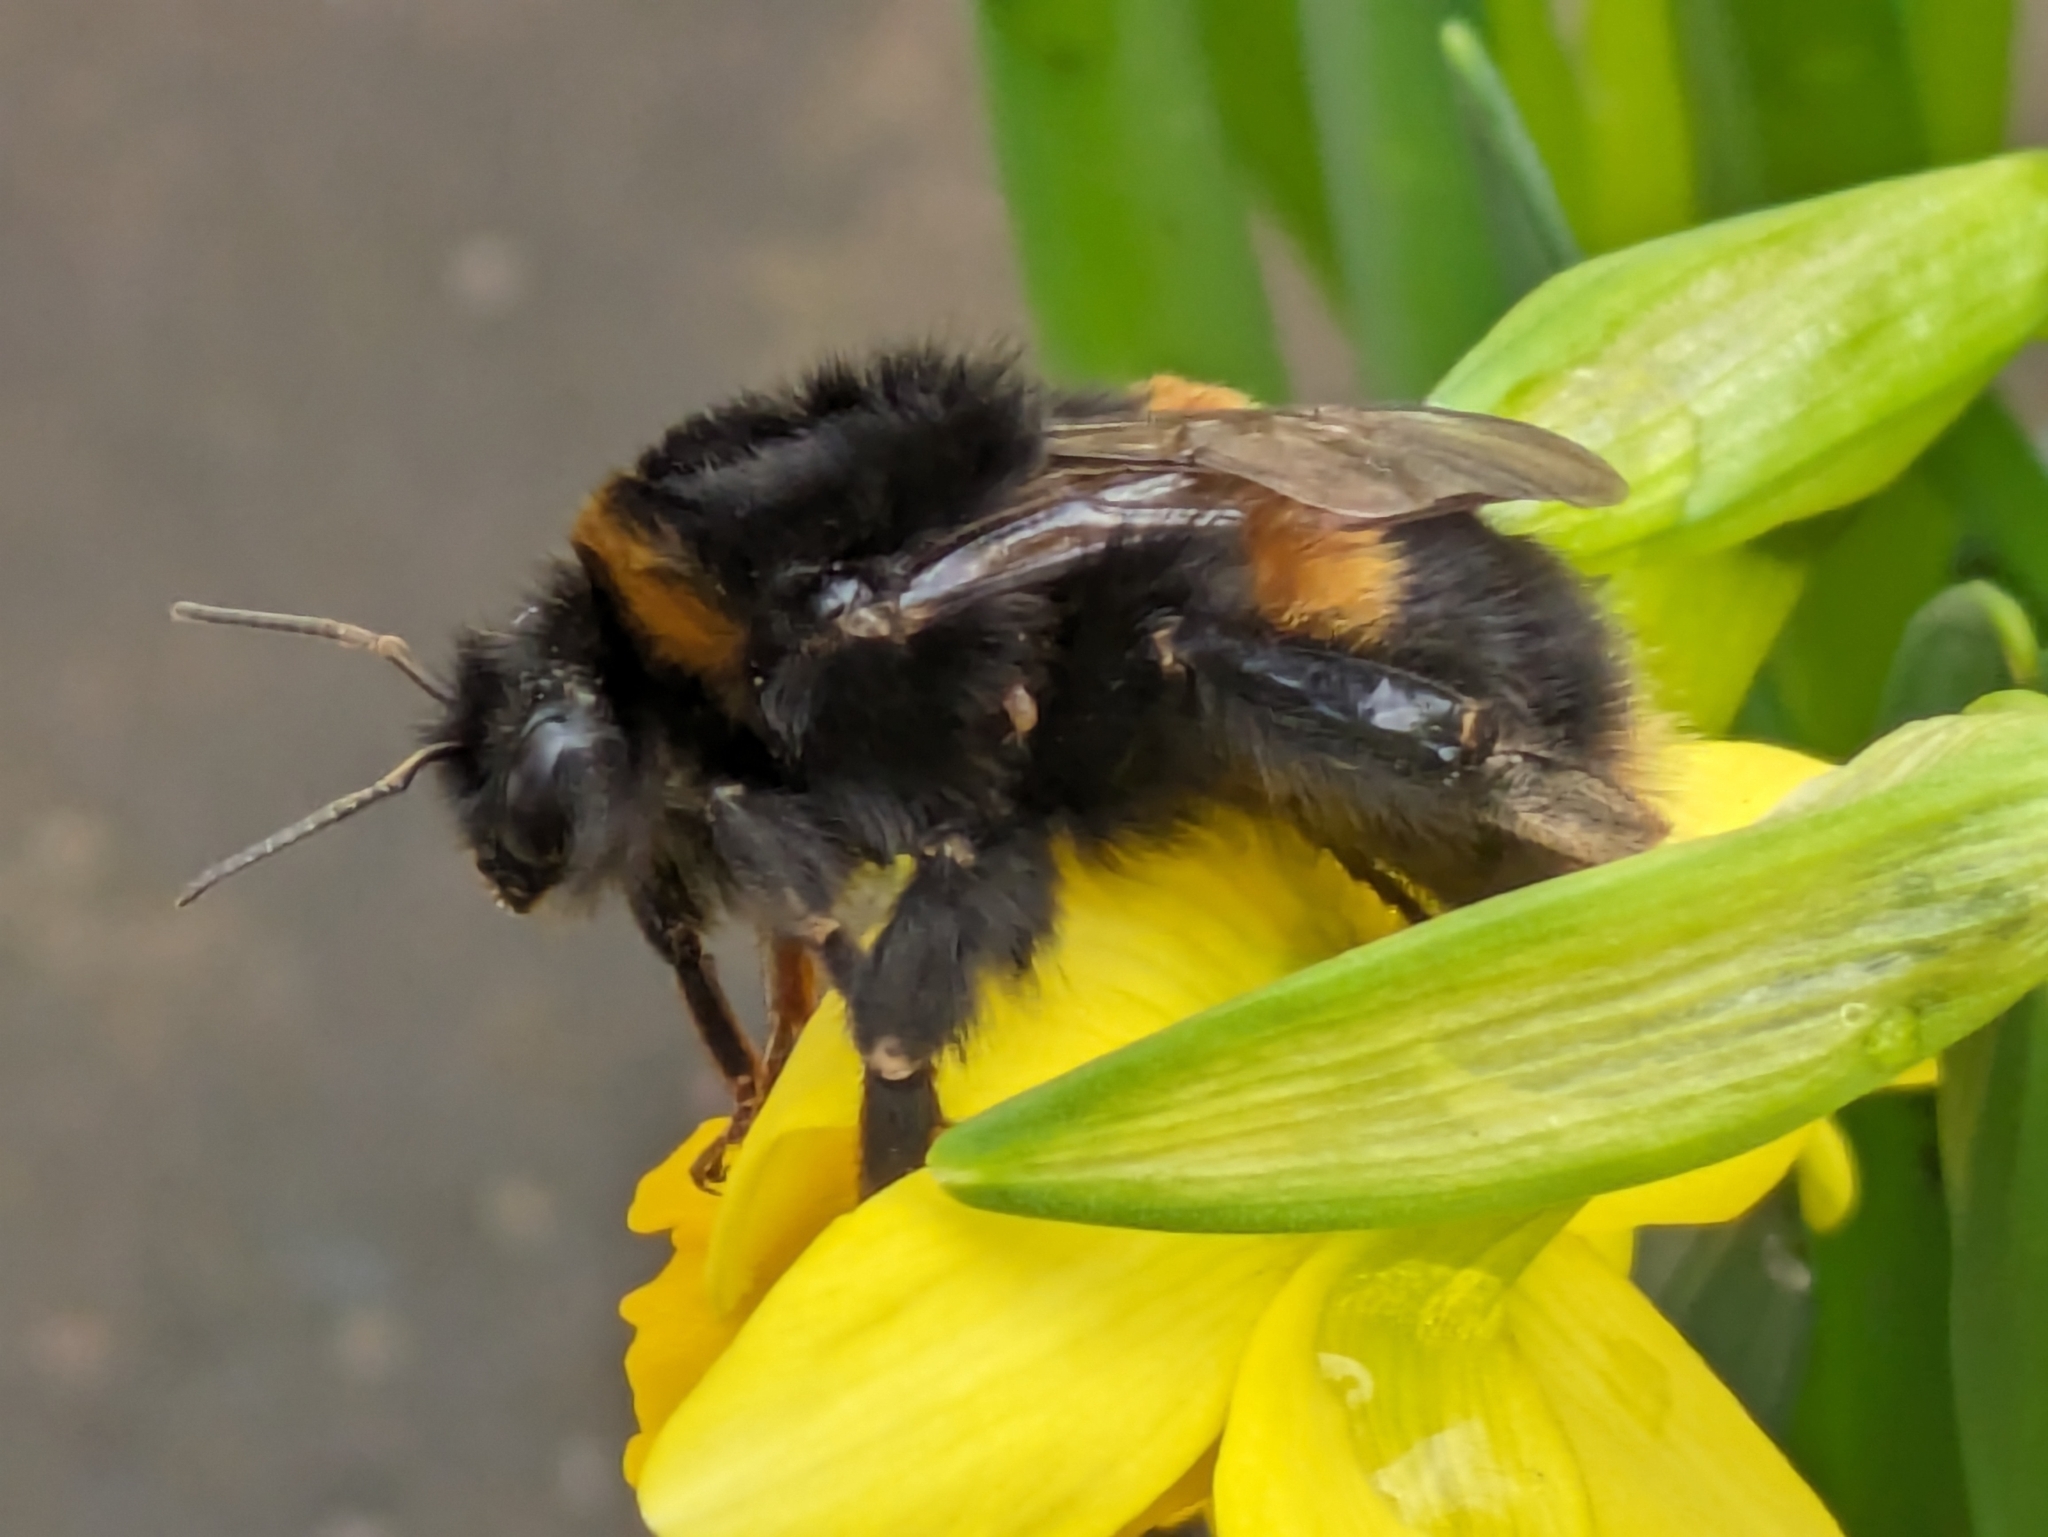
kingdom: Animalia
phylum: Arthropoda
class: Insecta
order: Hymenoptera
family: Apidae
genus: Bombus
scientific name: Bombus terrestris
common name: Buff-tailed bumblebee
